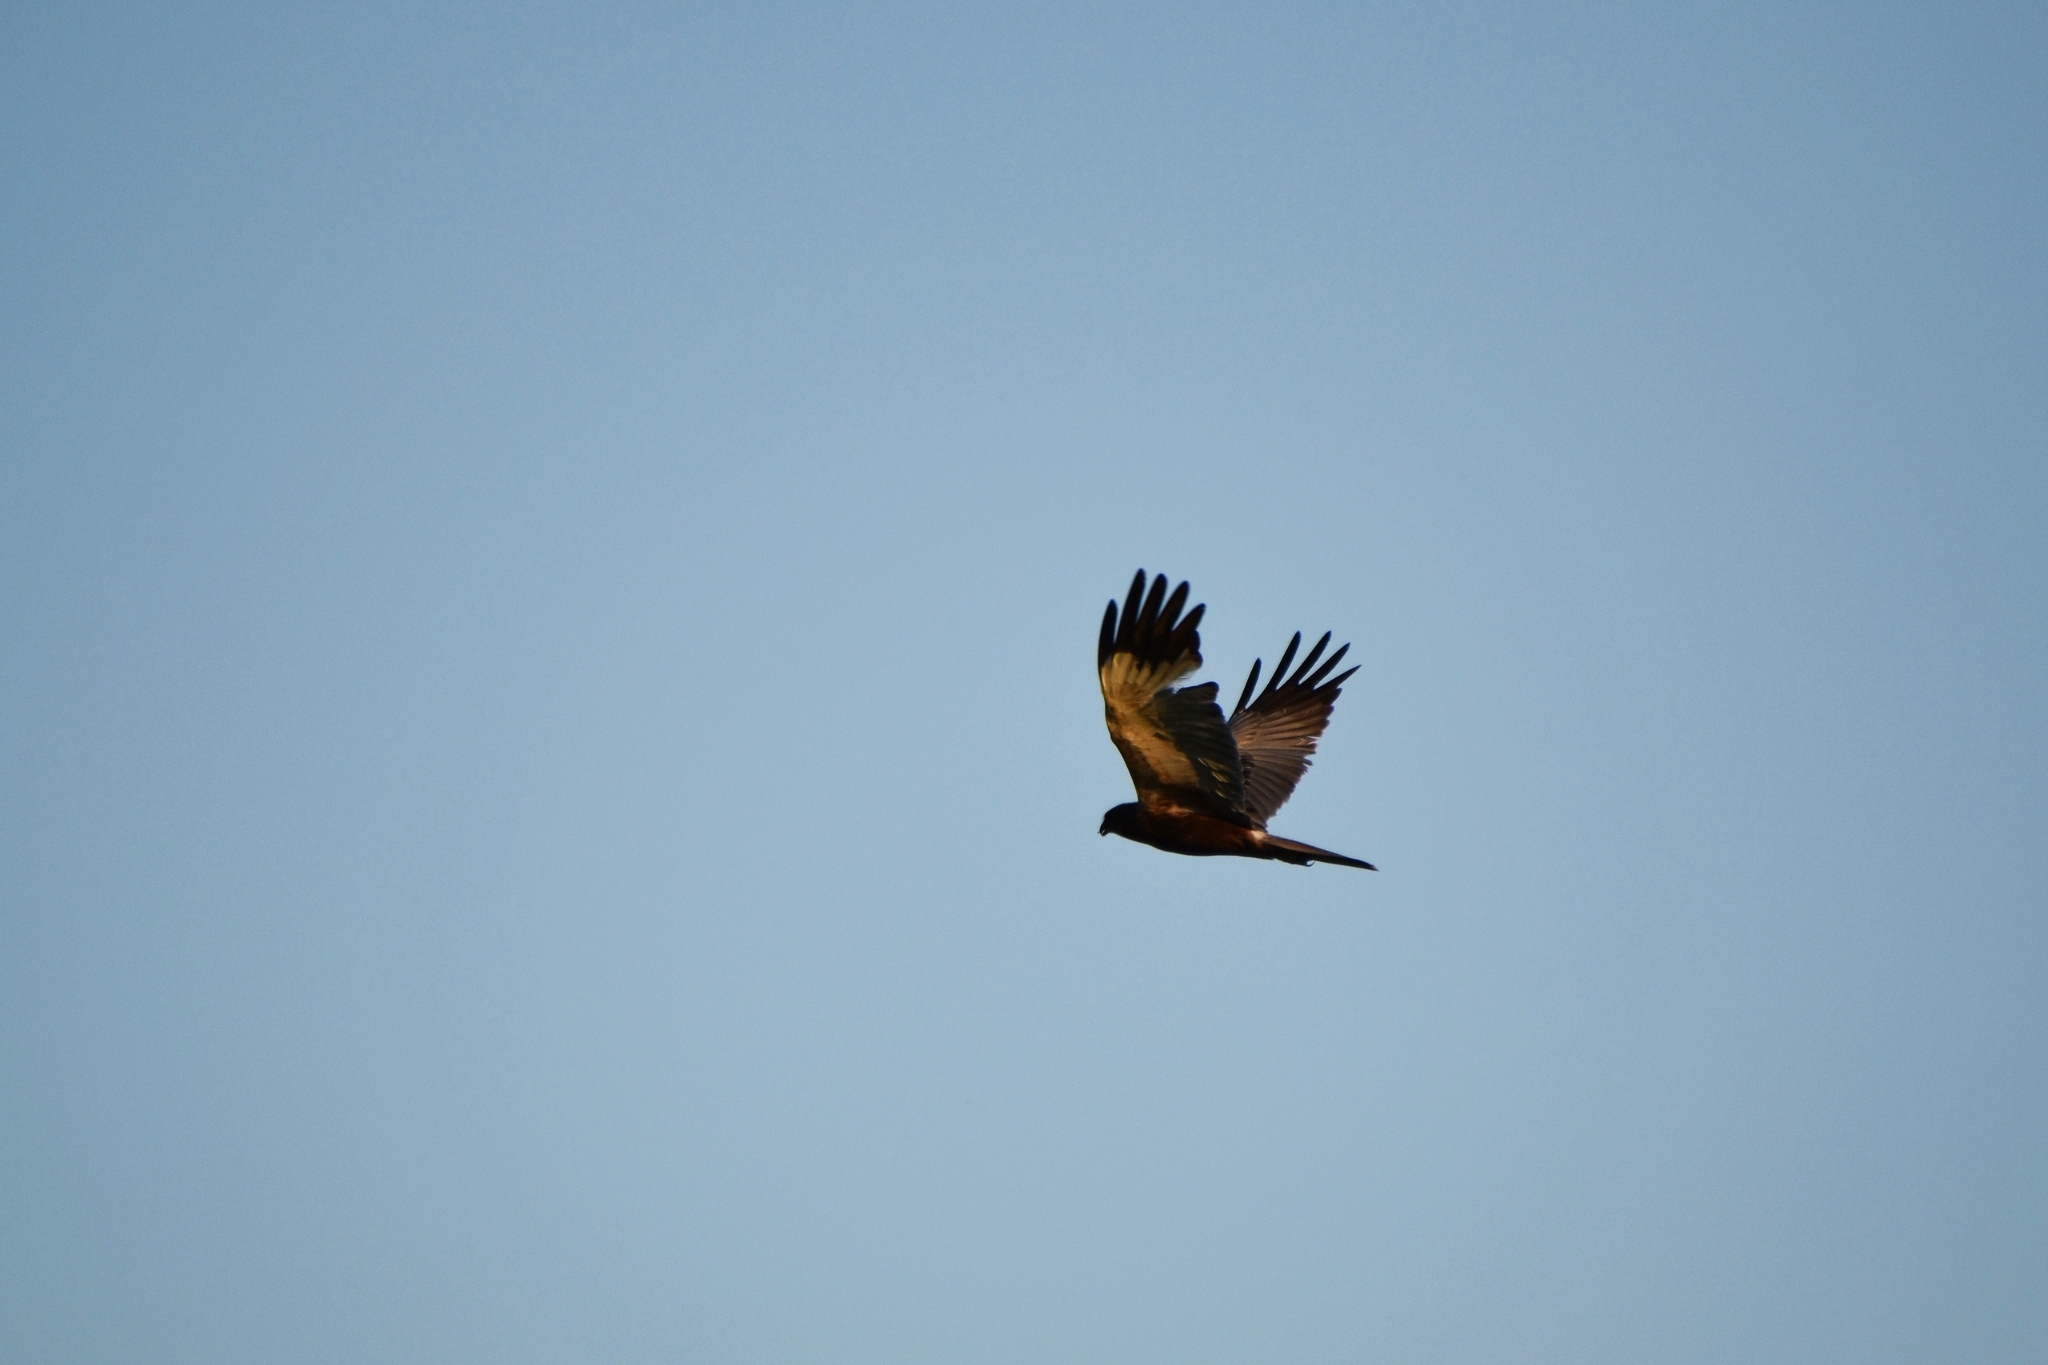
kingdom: Animalia
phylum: Chordata
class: Aves
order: Accipitriformes
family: Accipitridae
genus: Circus
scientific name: Circus aeruginosus
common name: Western marsh harrier
